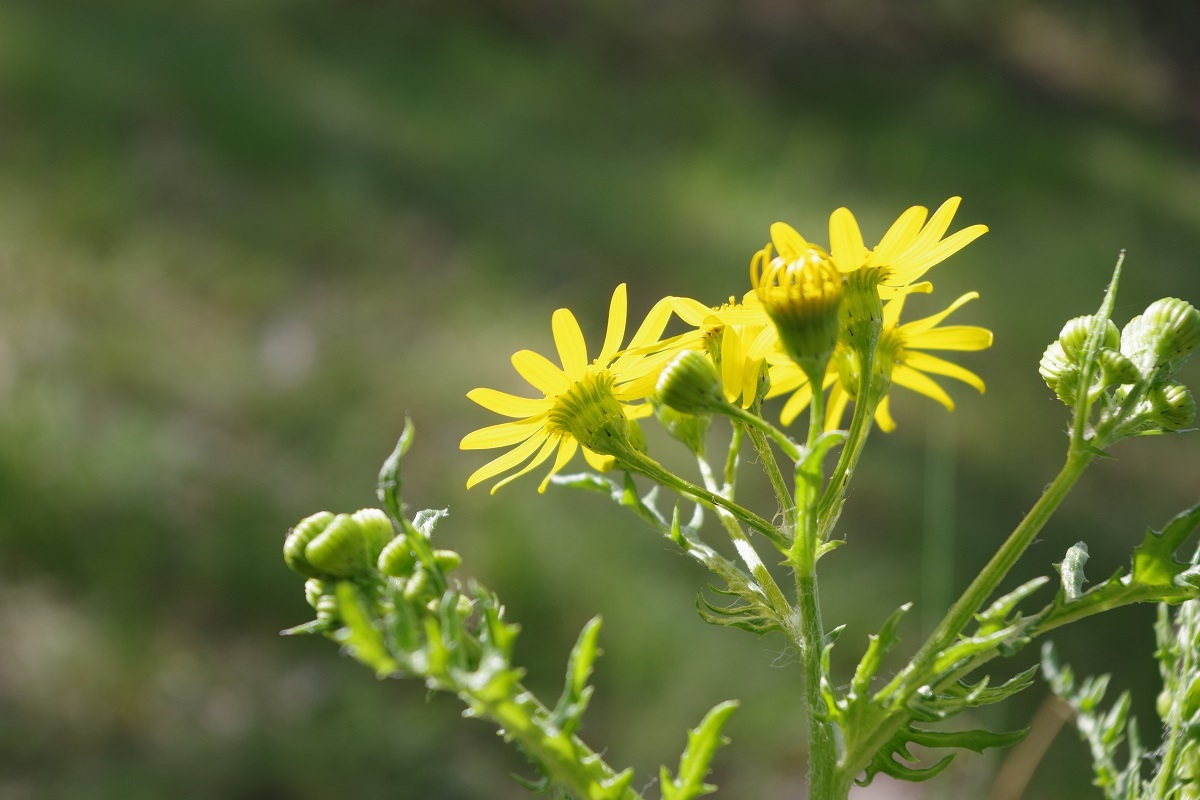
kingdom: Plantae
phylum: Tracheophyta
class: Magnoliopsida
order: Asterales
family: Asteraceae
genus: Senecio
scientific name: Senecio vernalis
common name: Eastern groundsel
